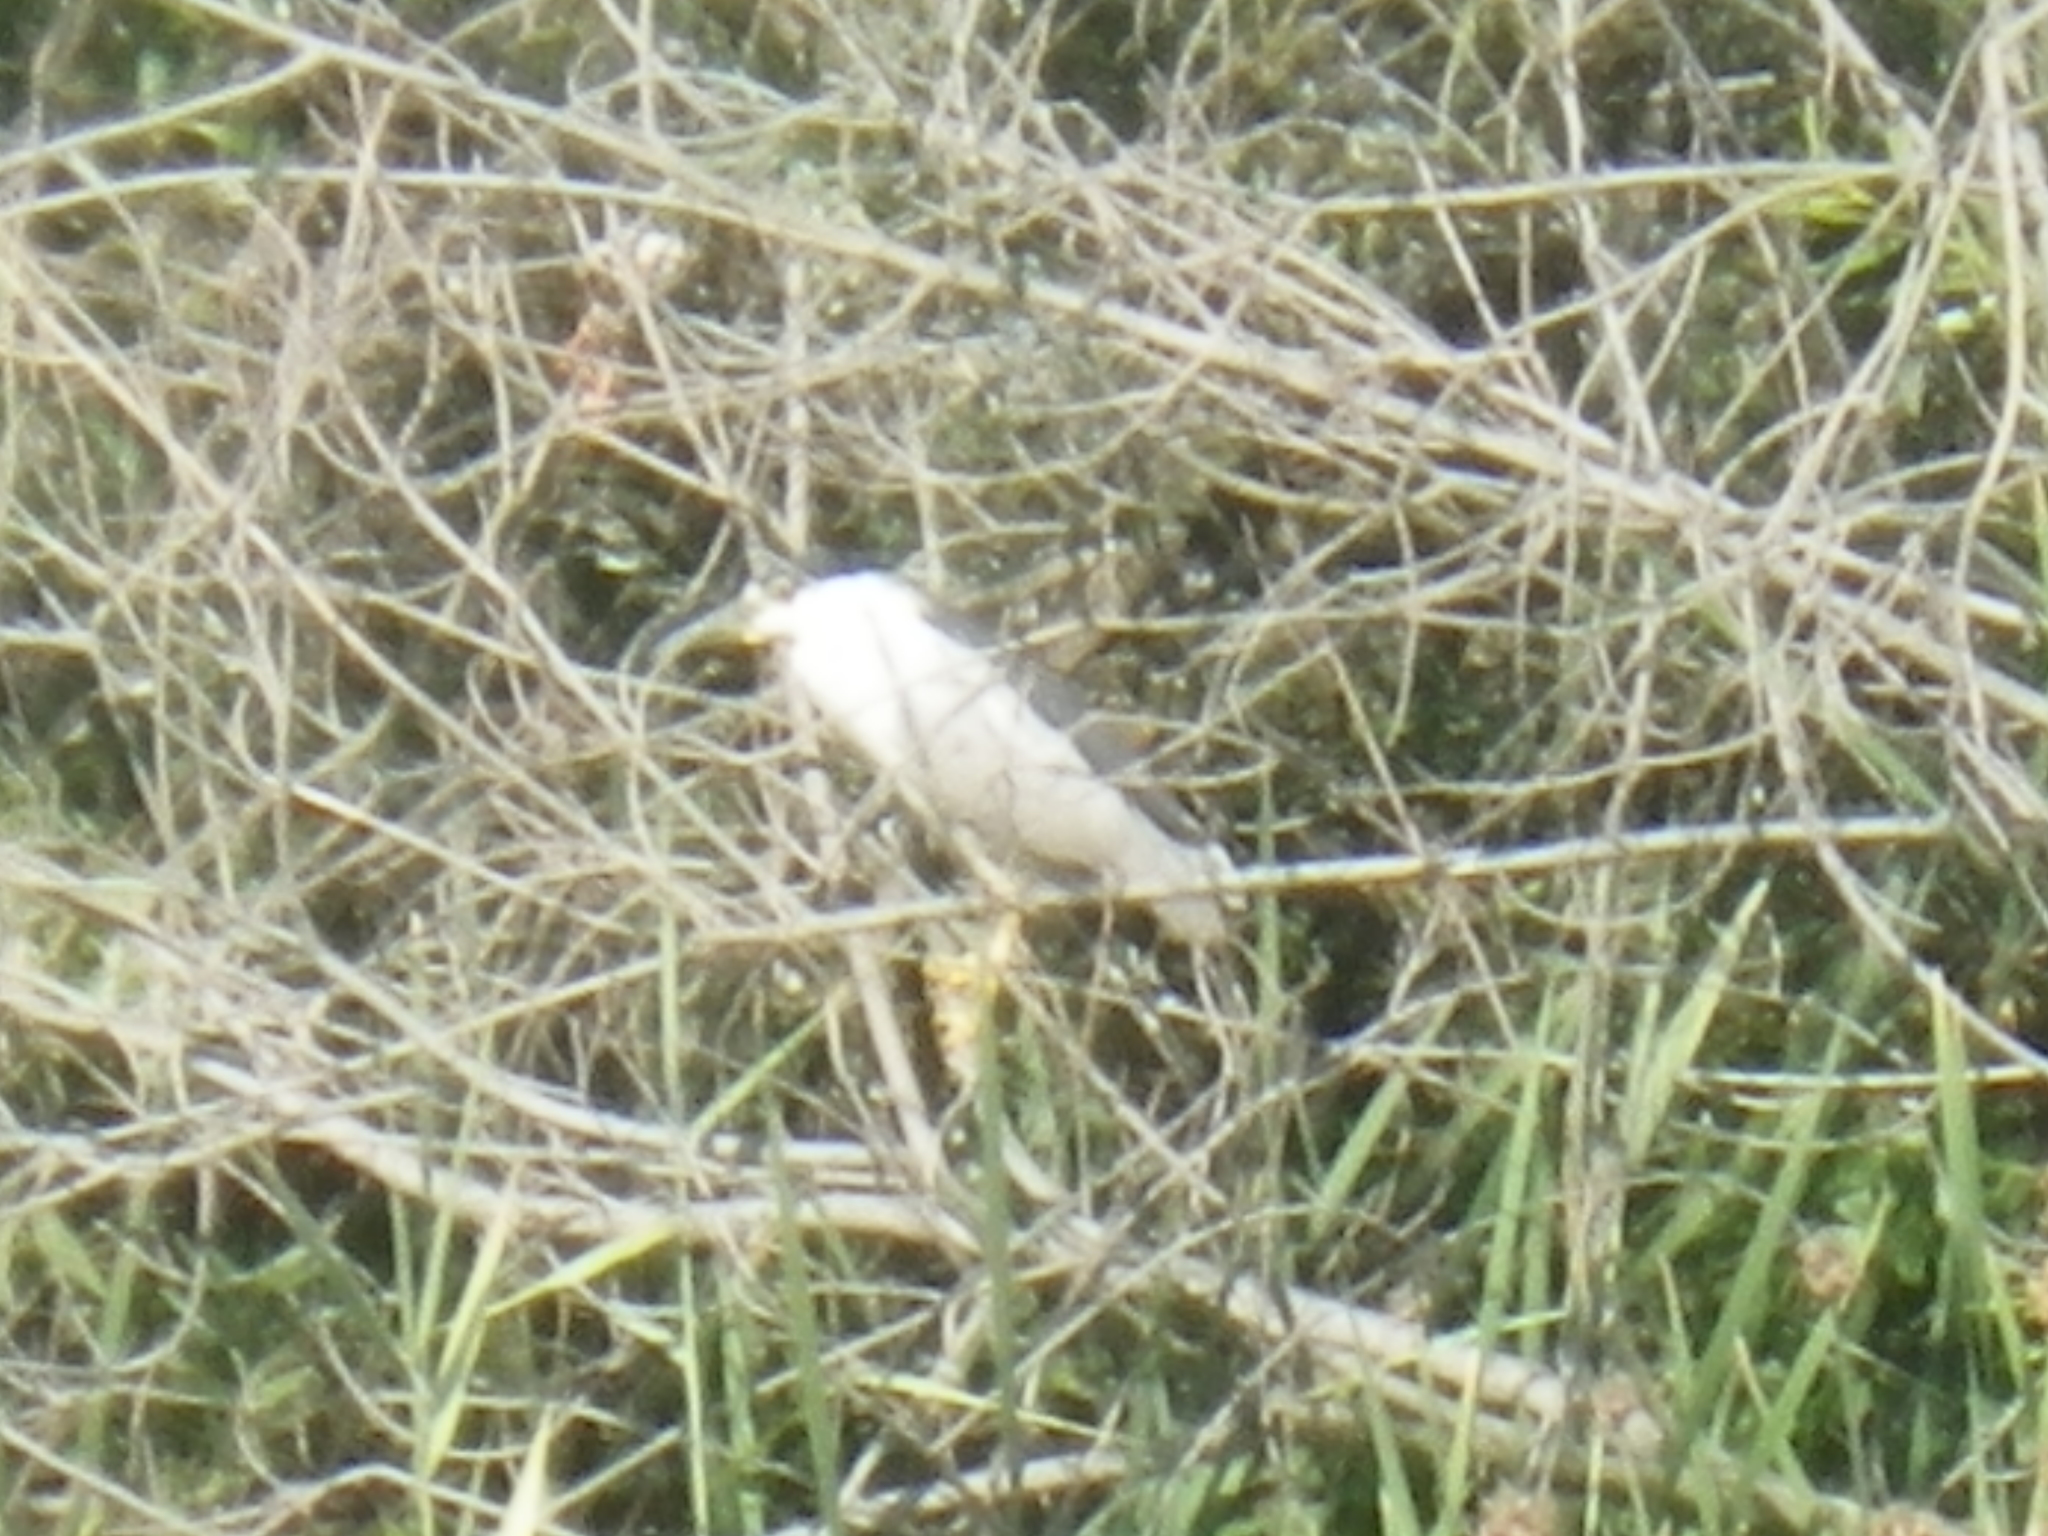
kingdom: Animalia
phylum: Chordata
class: Aves
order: Pelecaniformes
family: Ardeidae
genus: Nycticorax
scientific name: Nycticorax nycticorax
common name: Black-crowned night heron
